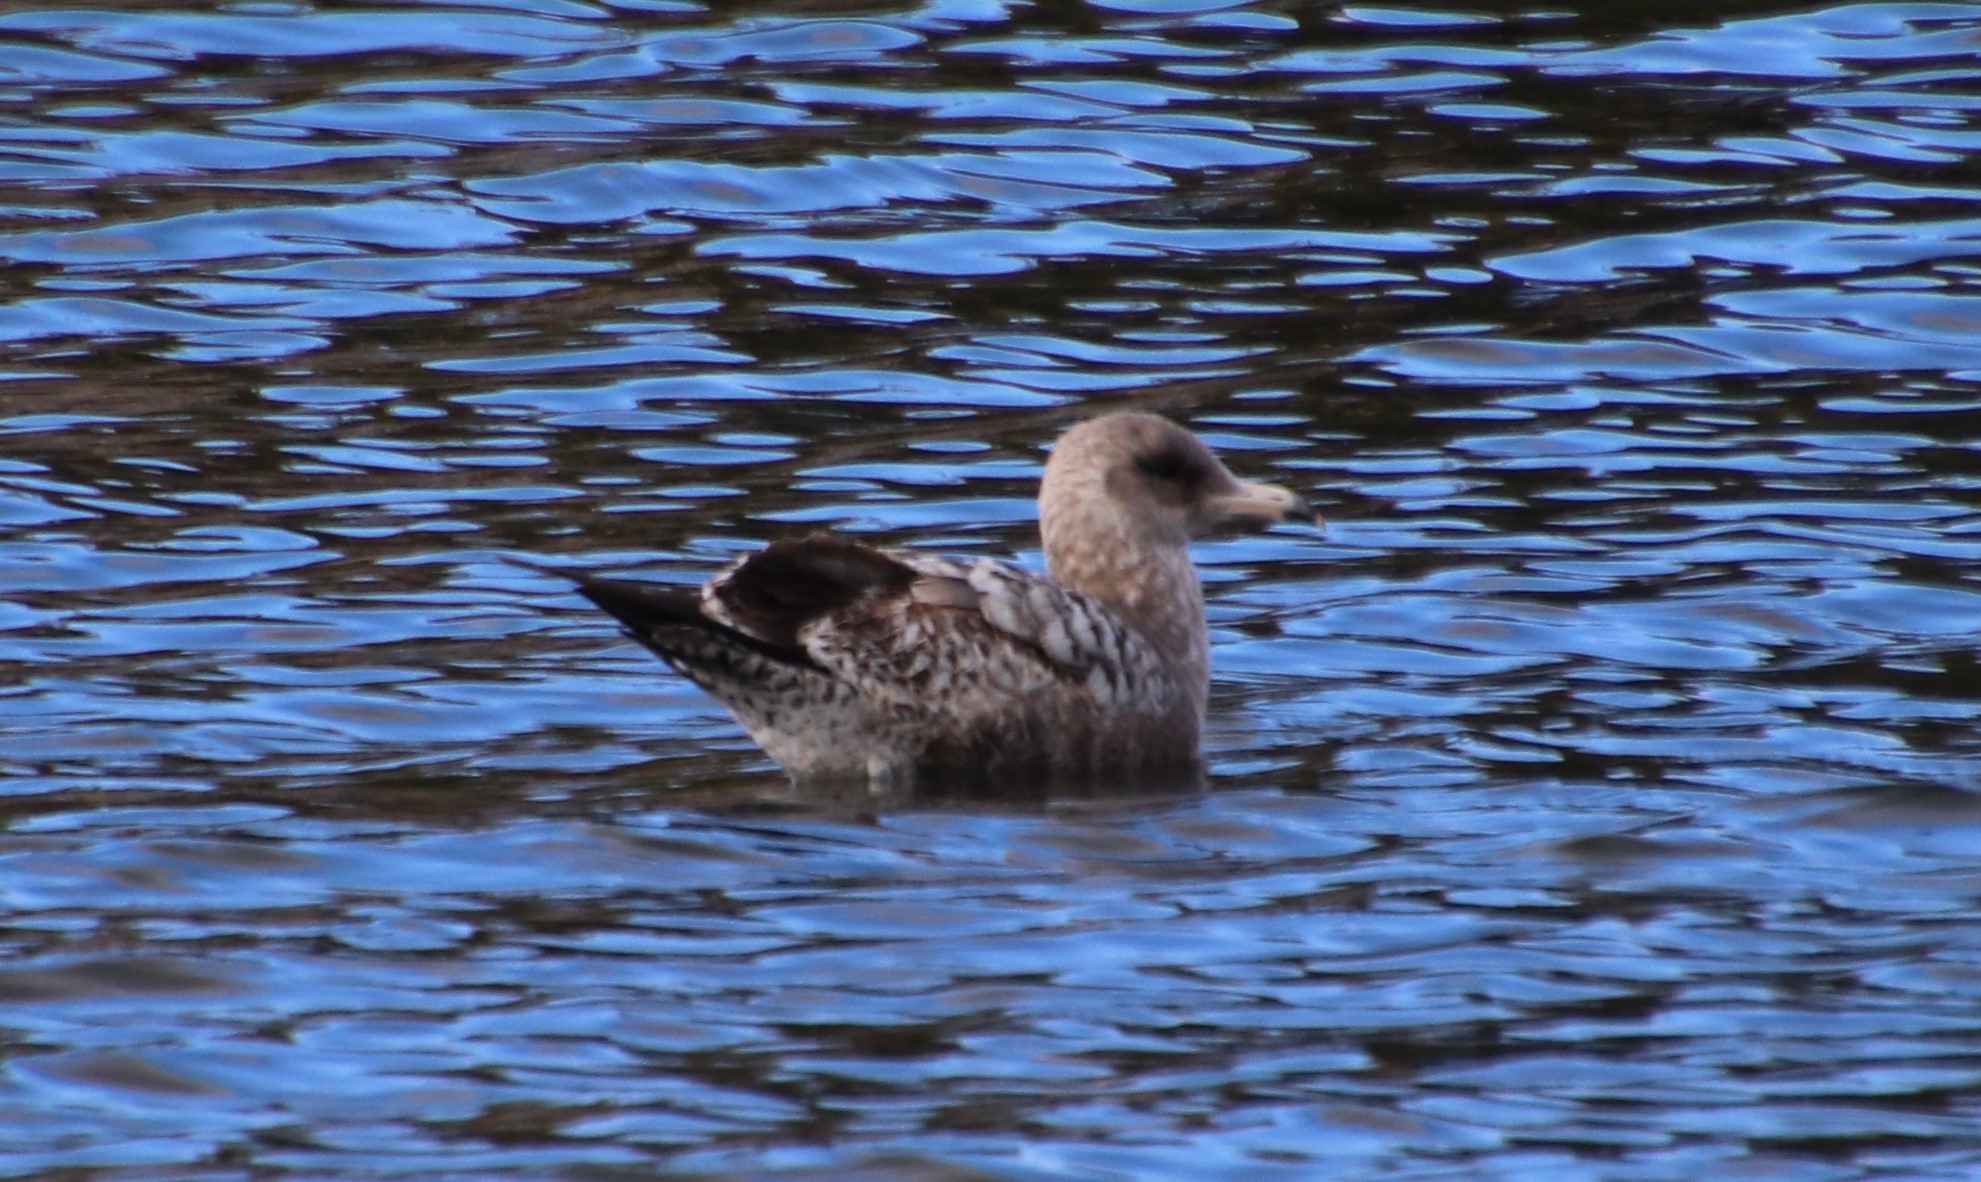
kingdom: Animalia
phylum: Chordata
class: Aves
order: Charadriiformes
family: Laridae
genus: Larus
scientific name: Larus californicus
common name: California gull
